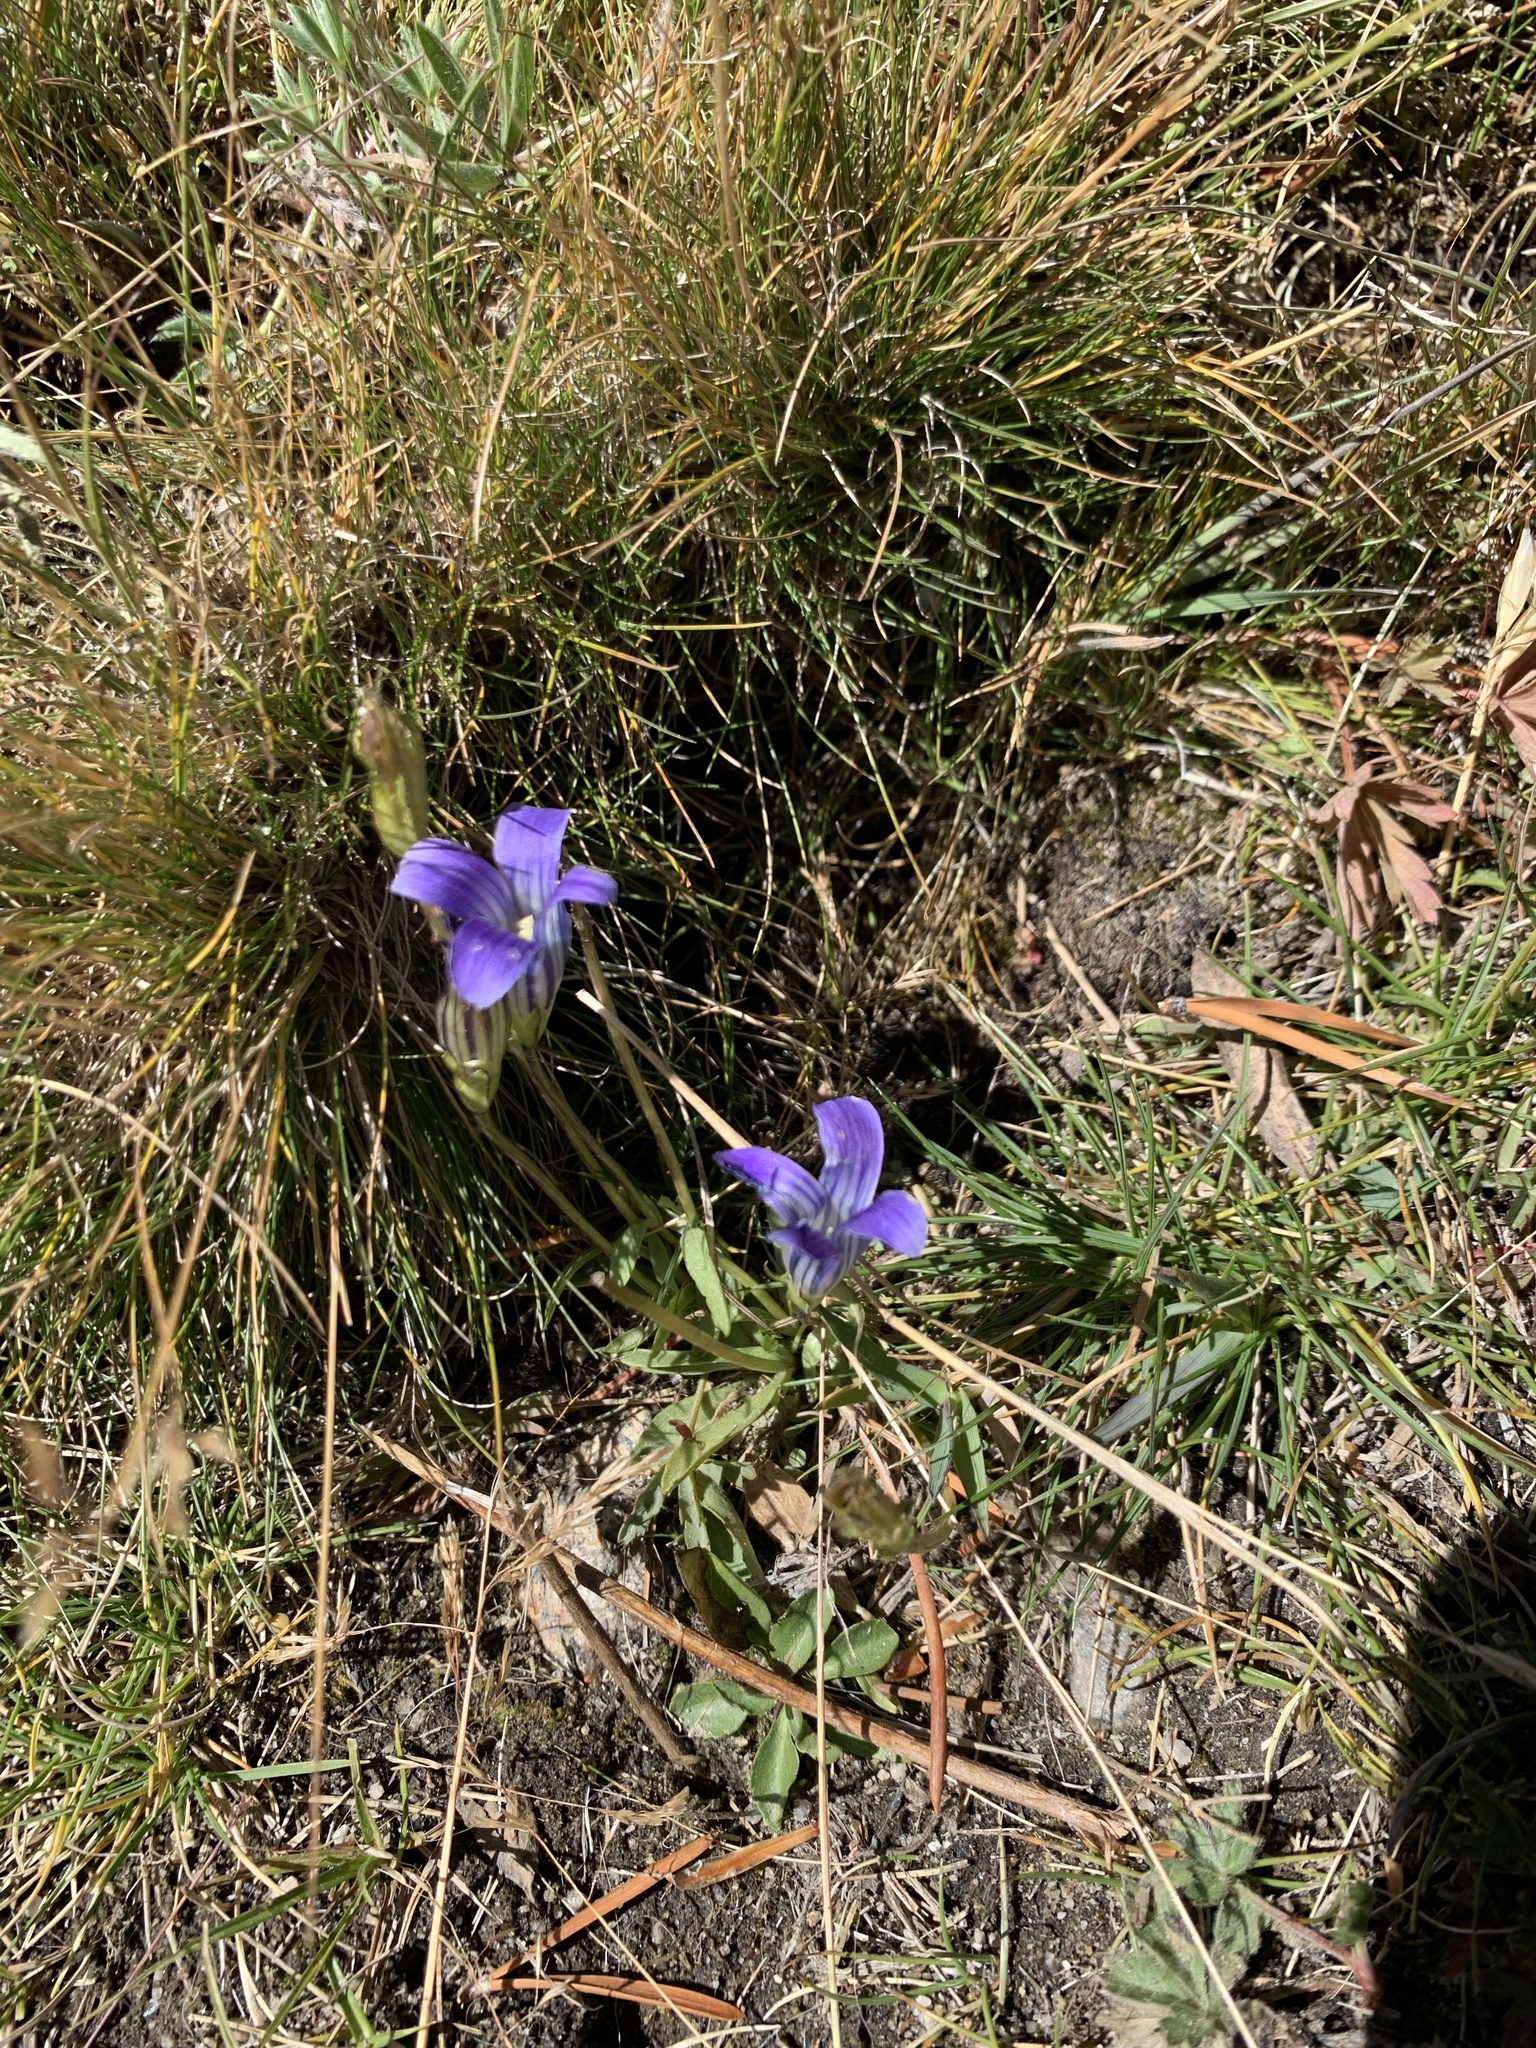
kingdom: Plantae
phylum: Tracheophyta
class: Magnoliopsida
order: Gentianales
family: Gentianaceae
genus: Gentianopsis
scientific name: Gentianopsis holopetala
